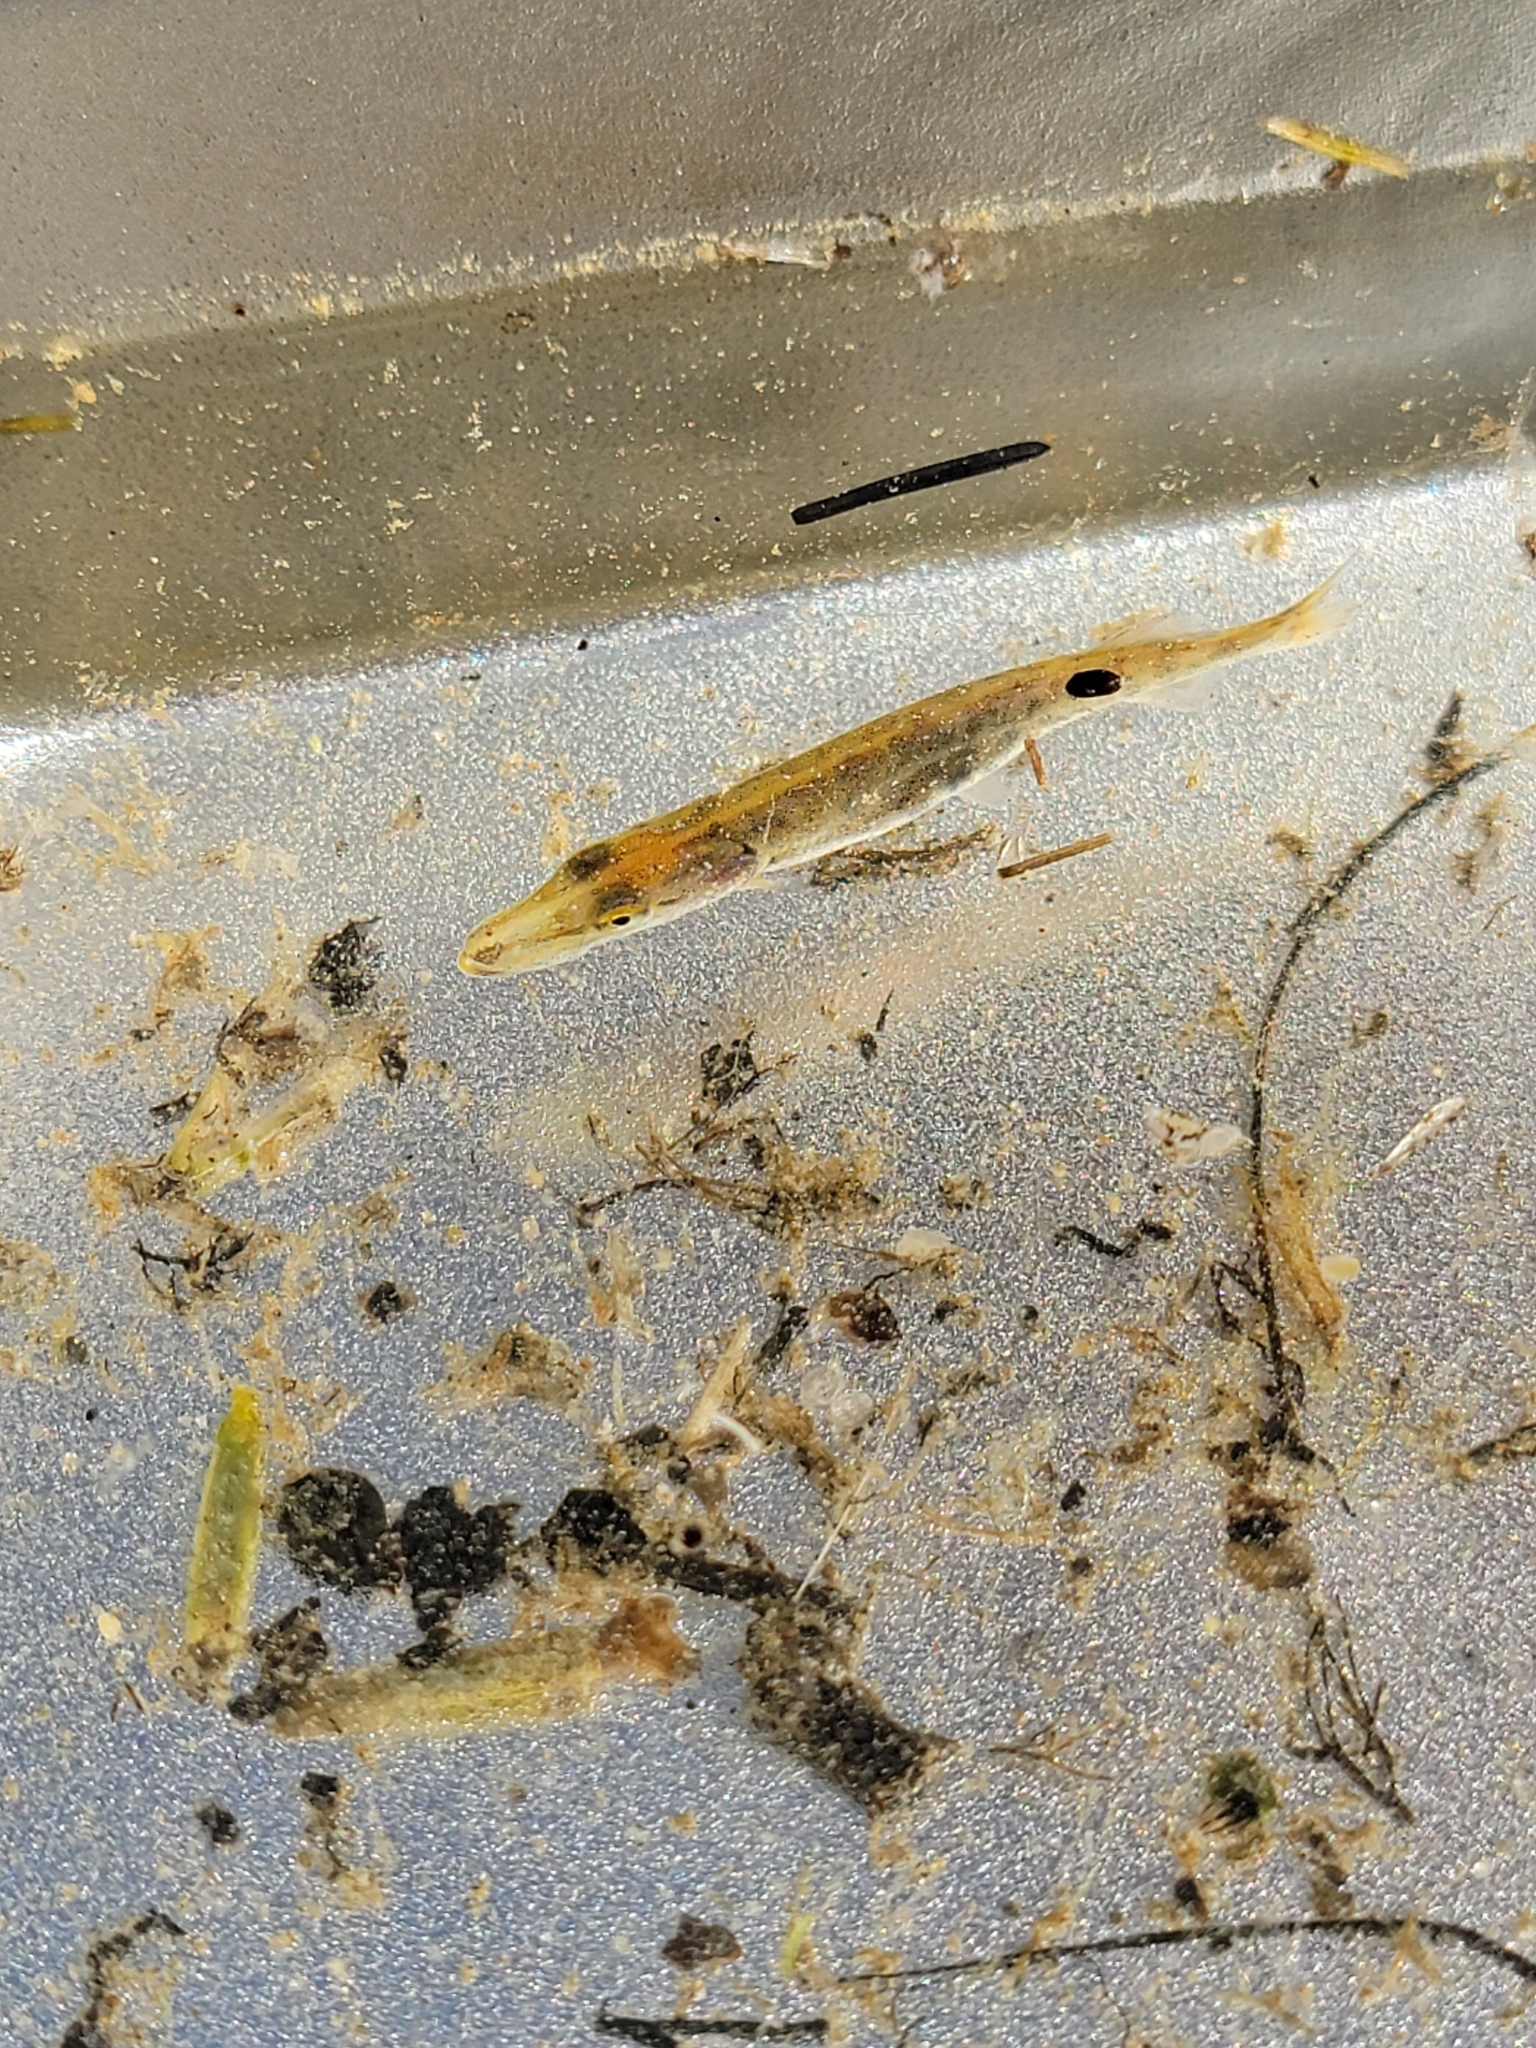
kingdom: Animalia
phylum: Chordata
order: Esociformes
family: Esocidae
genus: Esox
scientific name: Esox lucius
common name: Northern pike
